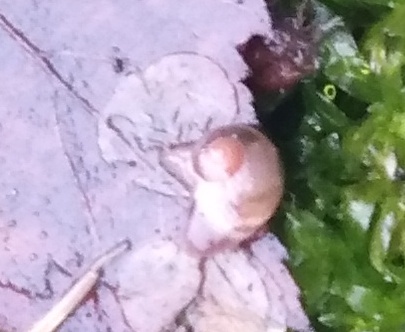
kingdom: Animalia
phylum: Mollusca
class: Gastropoda
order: Stylommatophora
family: Vitrinidae
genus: Vitrina
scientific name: Vitrina pellucida
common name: Pellucid glass snail
